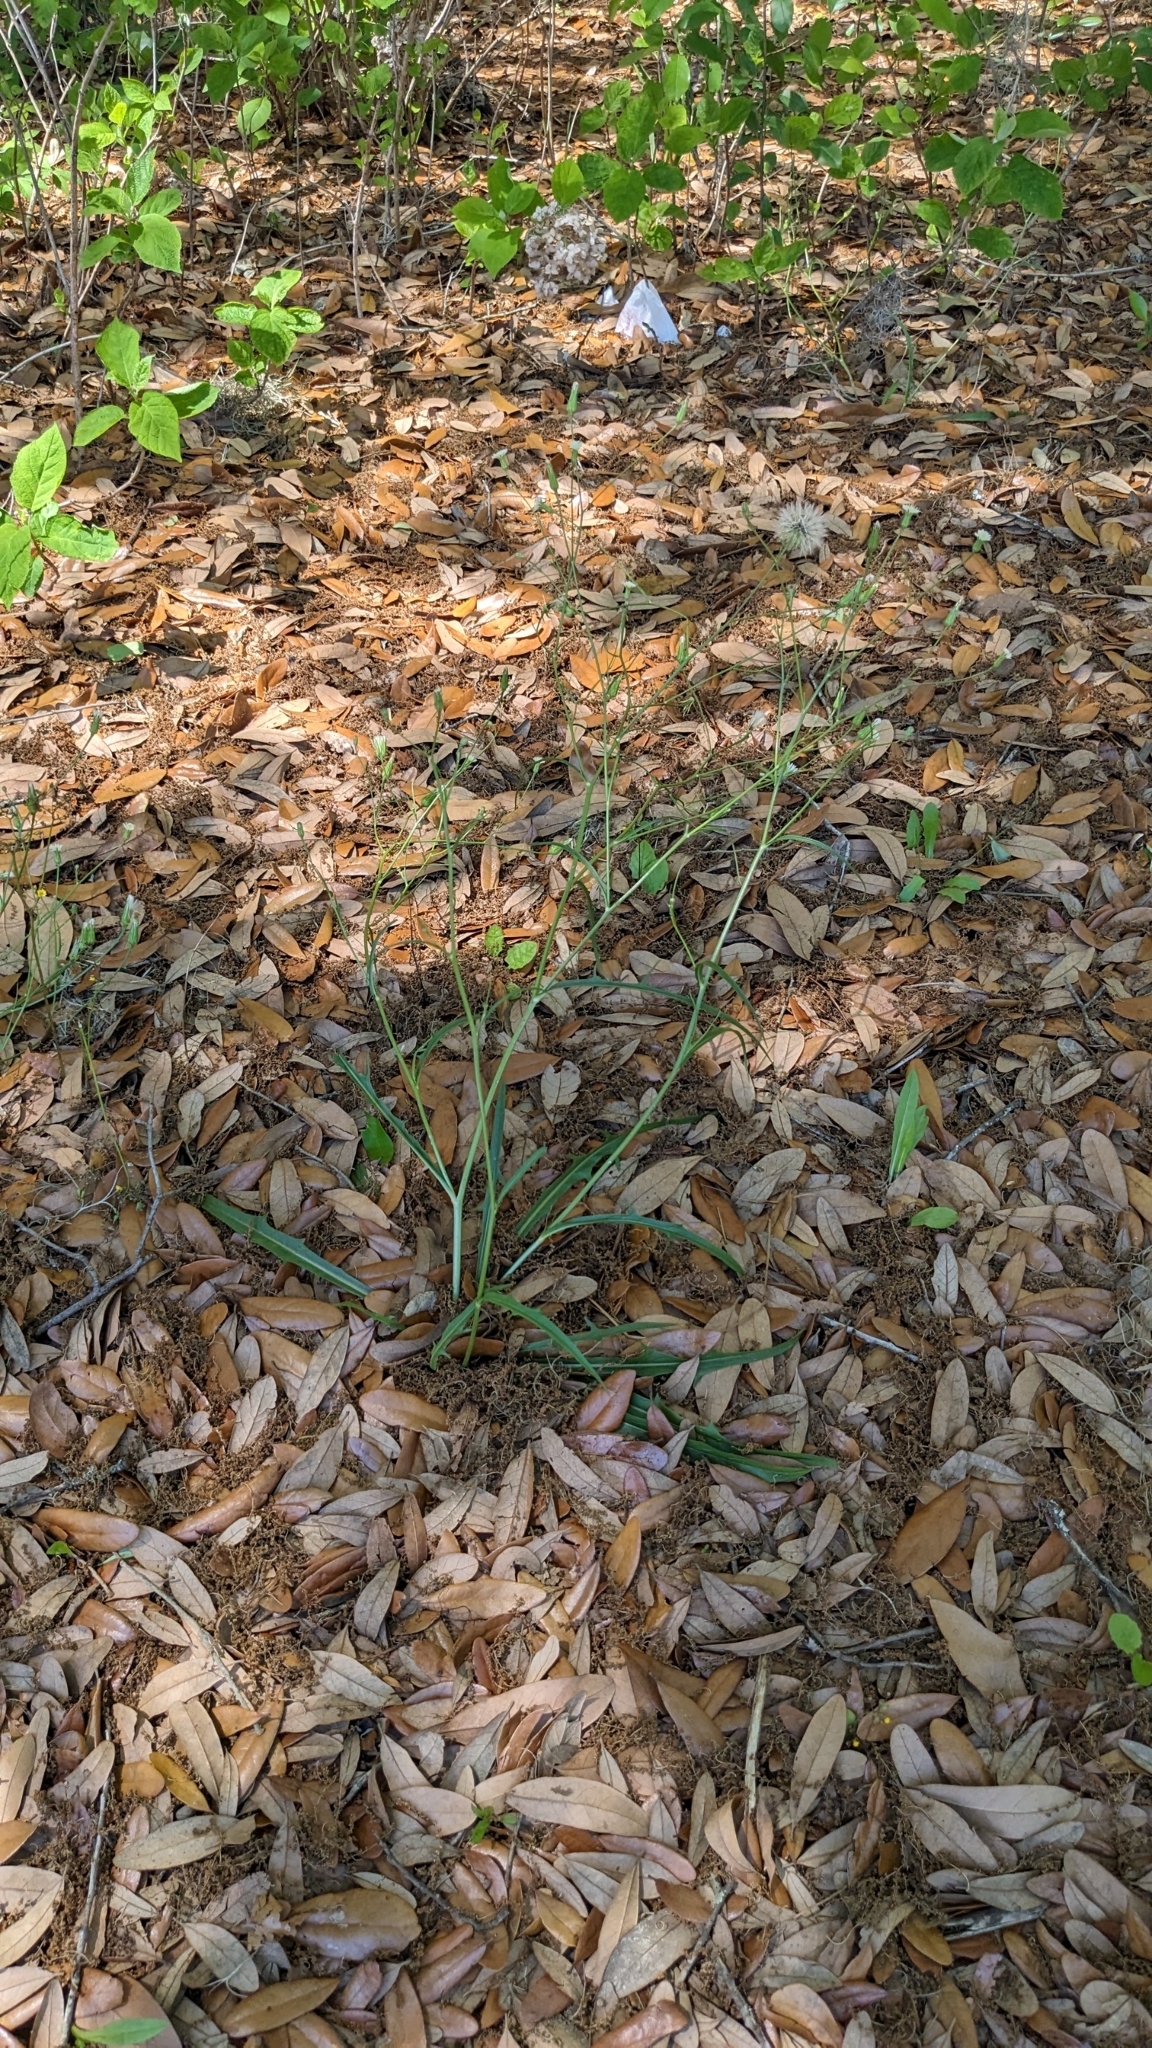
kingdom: Plantae
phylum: Tracheophyta
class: Magnoliopsida
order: Asterales
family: Asteraceae
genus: Hypochaeris
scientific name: Hypochaeris albiflora
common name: White flatweed
